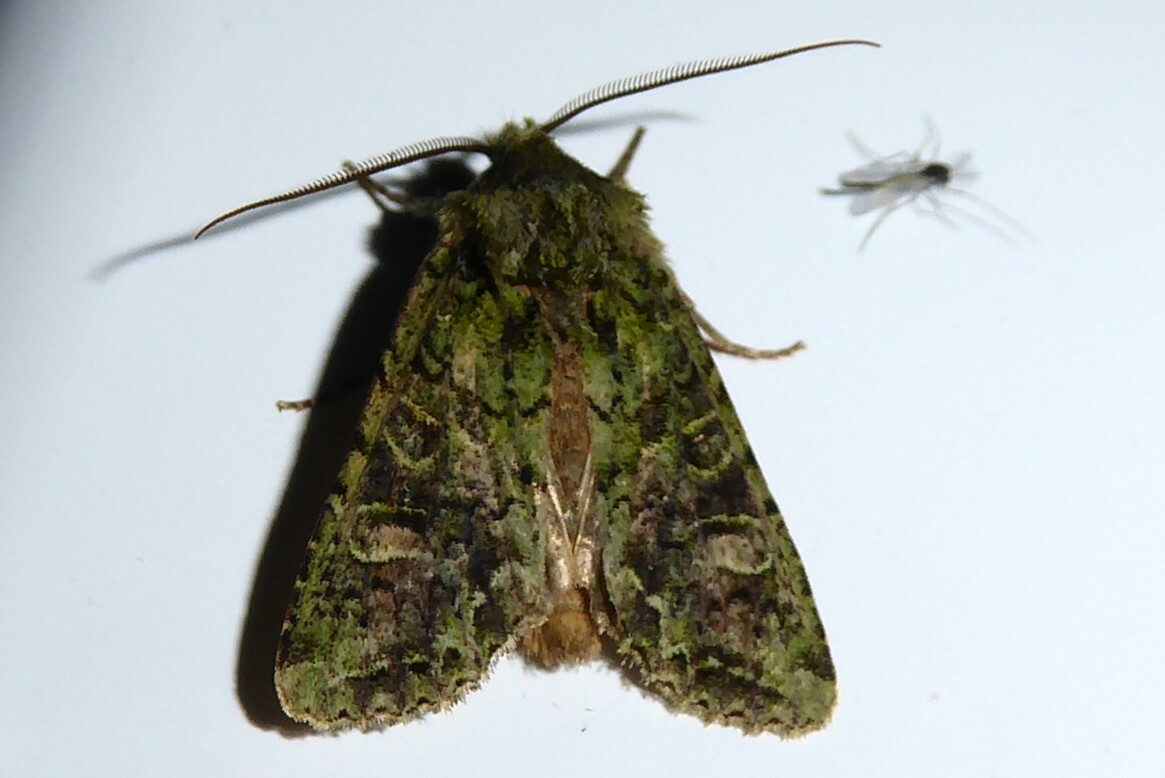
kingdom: Animalia
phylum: Arthropoda
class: Insecta
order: Lepidoptera
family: Noctuidae
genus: Ichneutica
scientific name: Ichneutica
